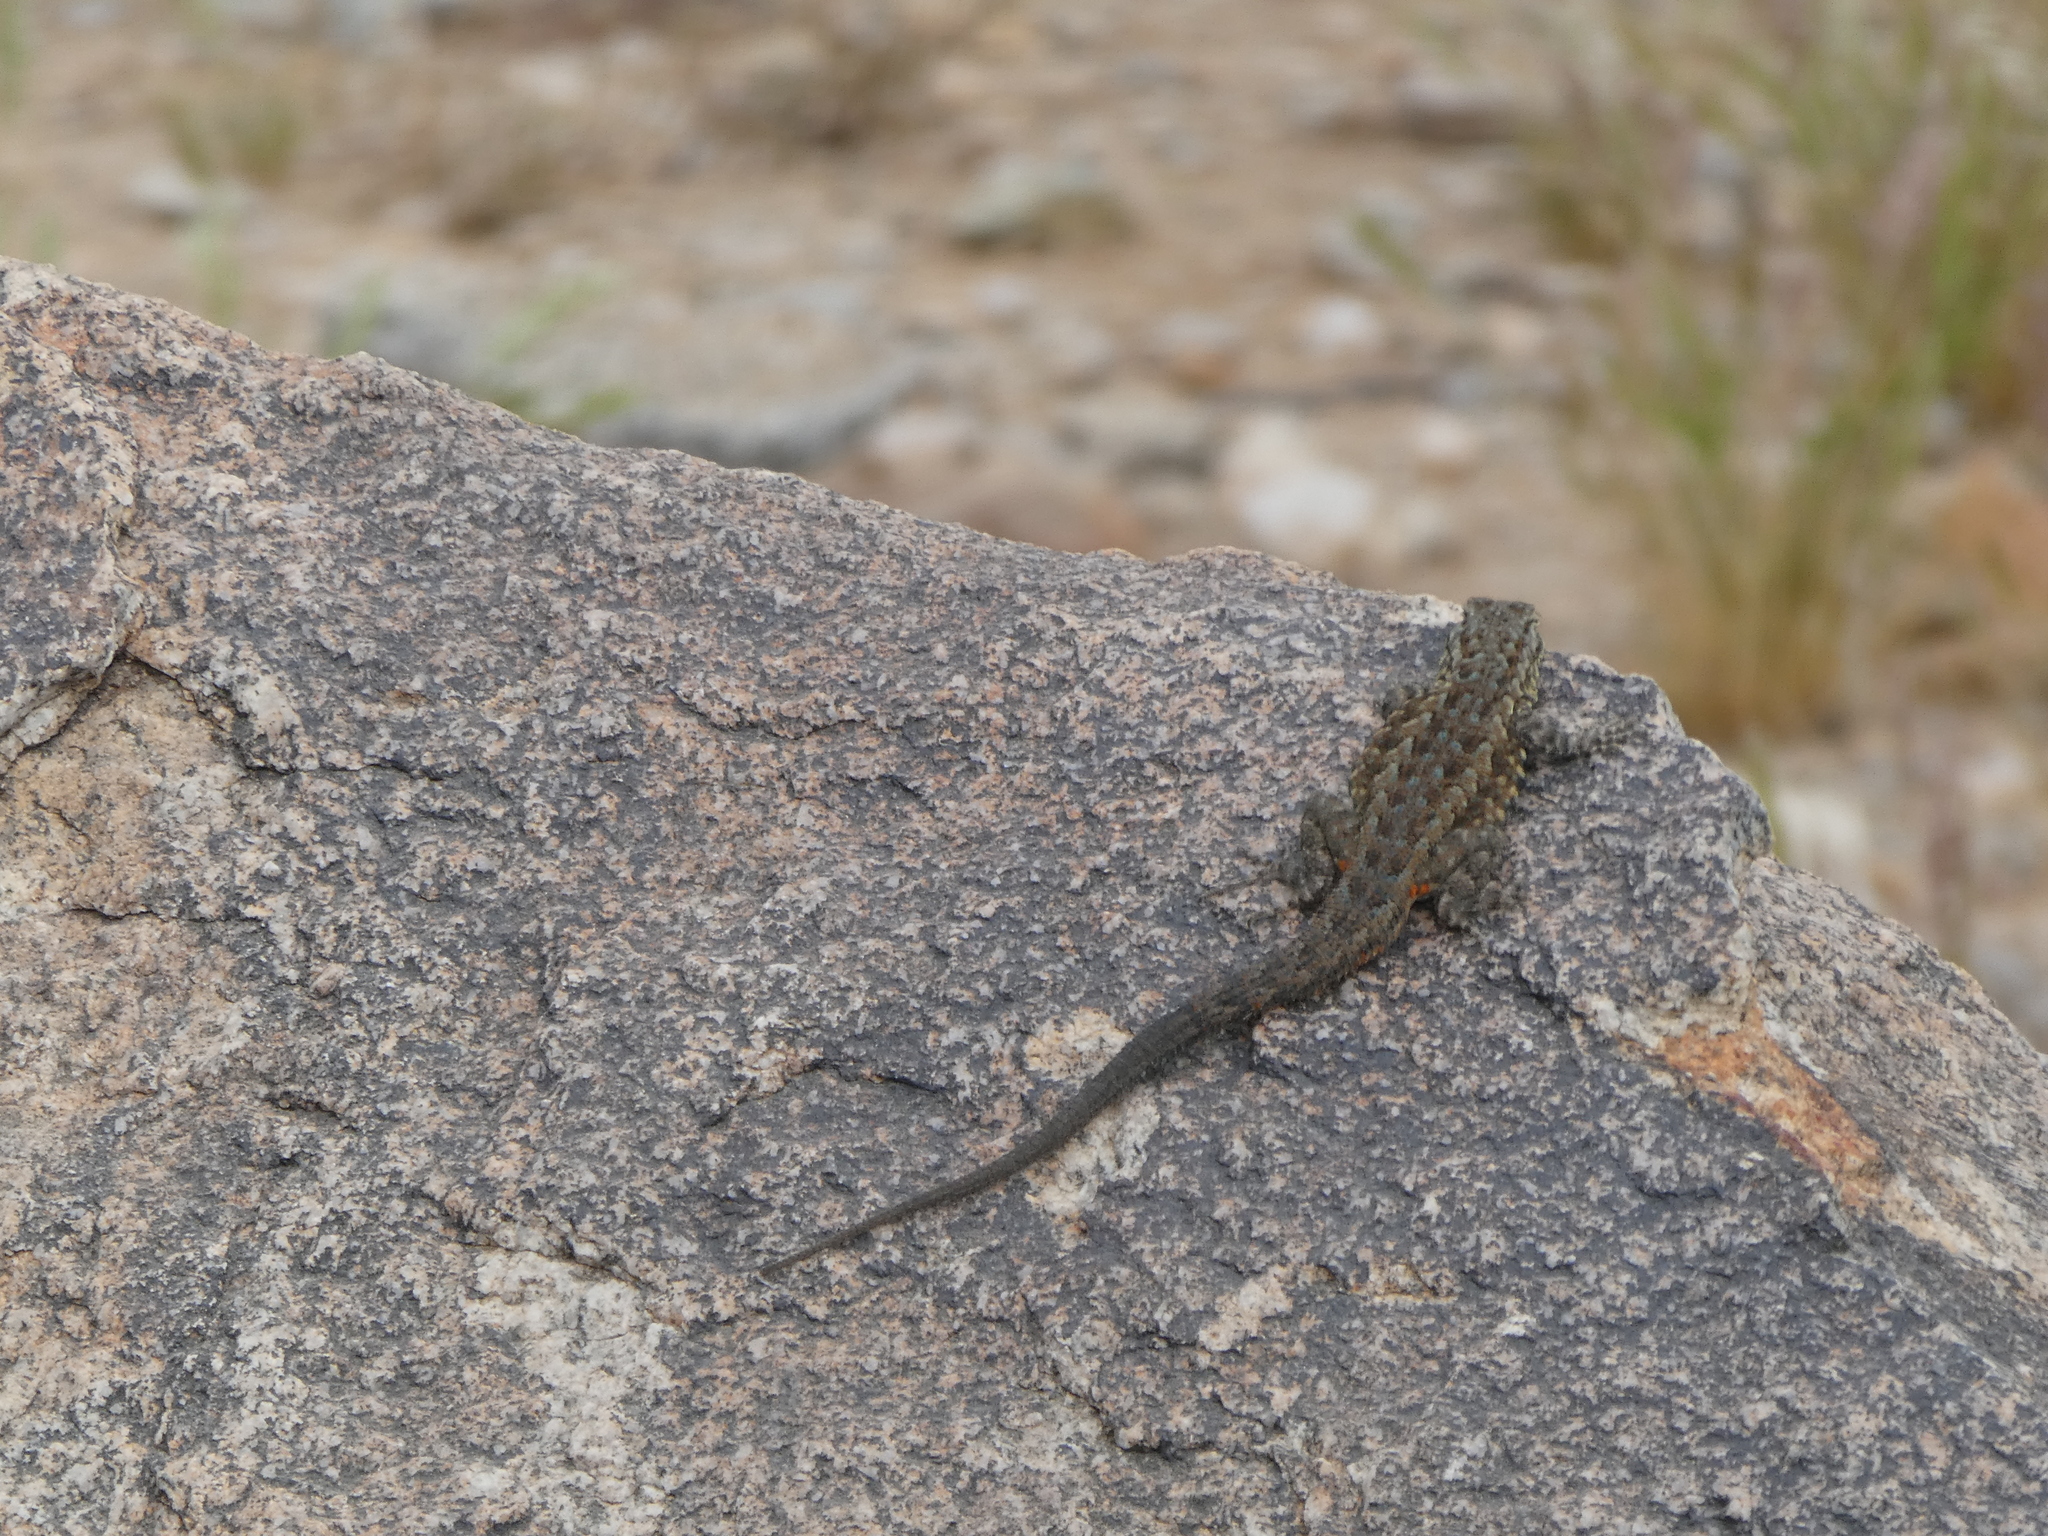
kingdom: Animalia
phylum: Chordata
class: Squamata
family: Phrynosomatidae
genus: Uta
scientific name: Uta stansburiana
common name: Side-blotched lizard
